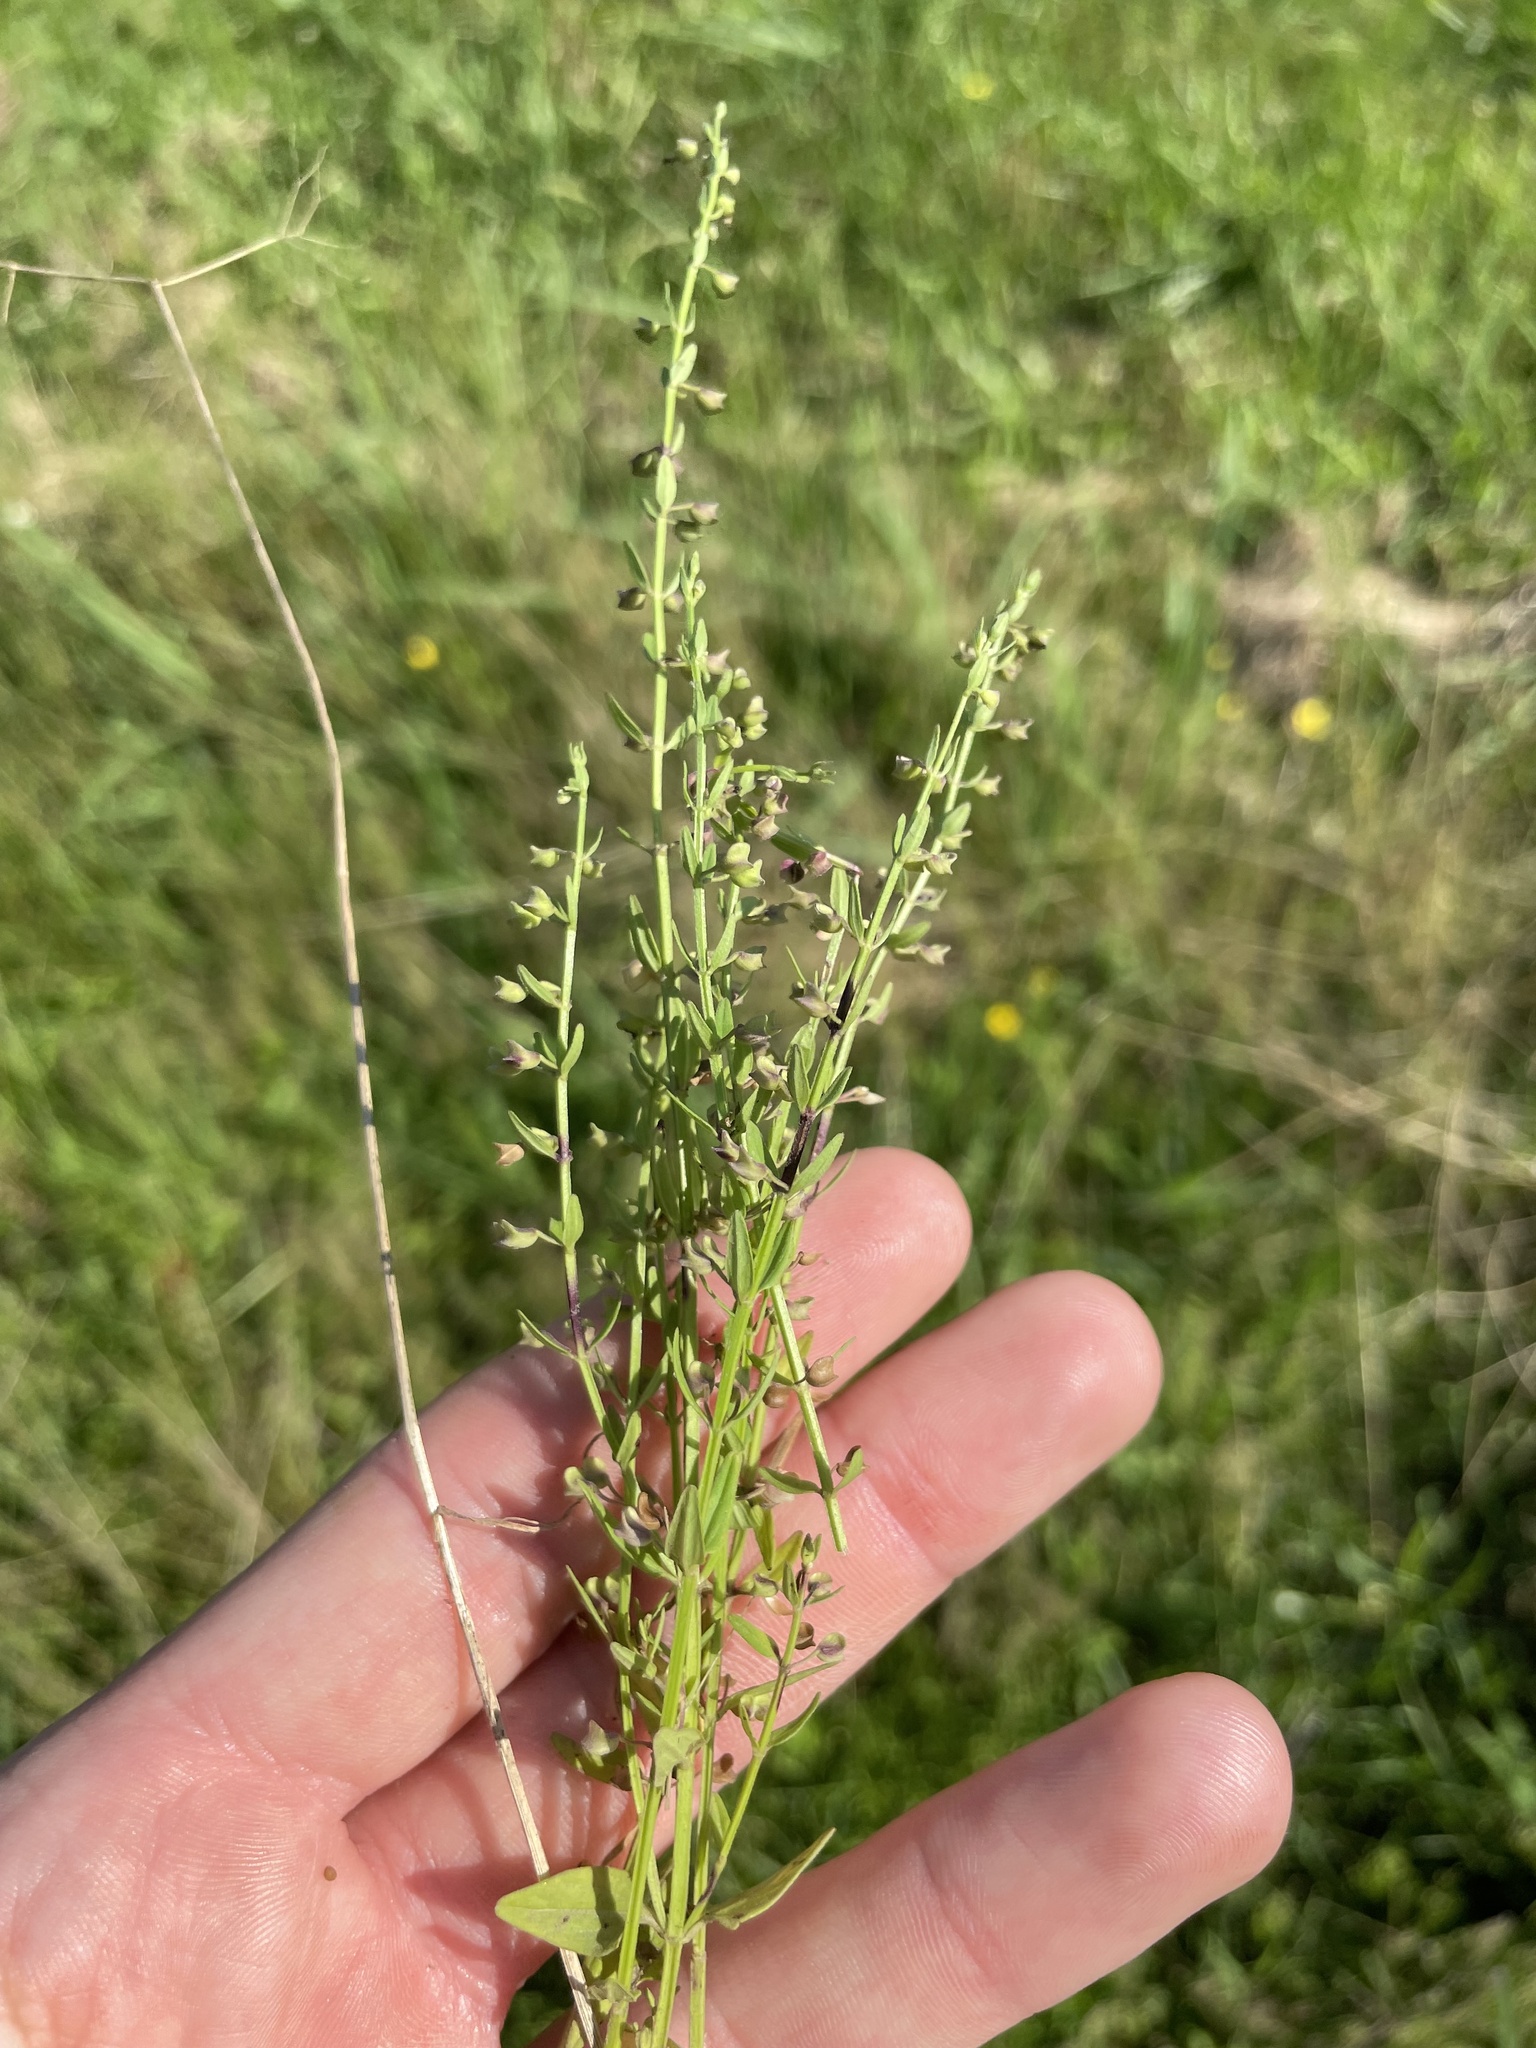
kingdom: Plantae
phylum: Tracheophyta
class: Magnoliopsida
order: Lamiales
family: Lamiaceae
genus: Scutellaria
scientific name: Scutellaria racemosa
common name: South american skullcap
